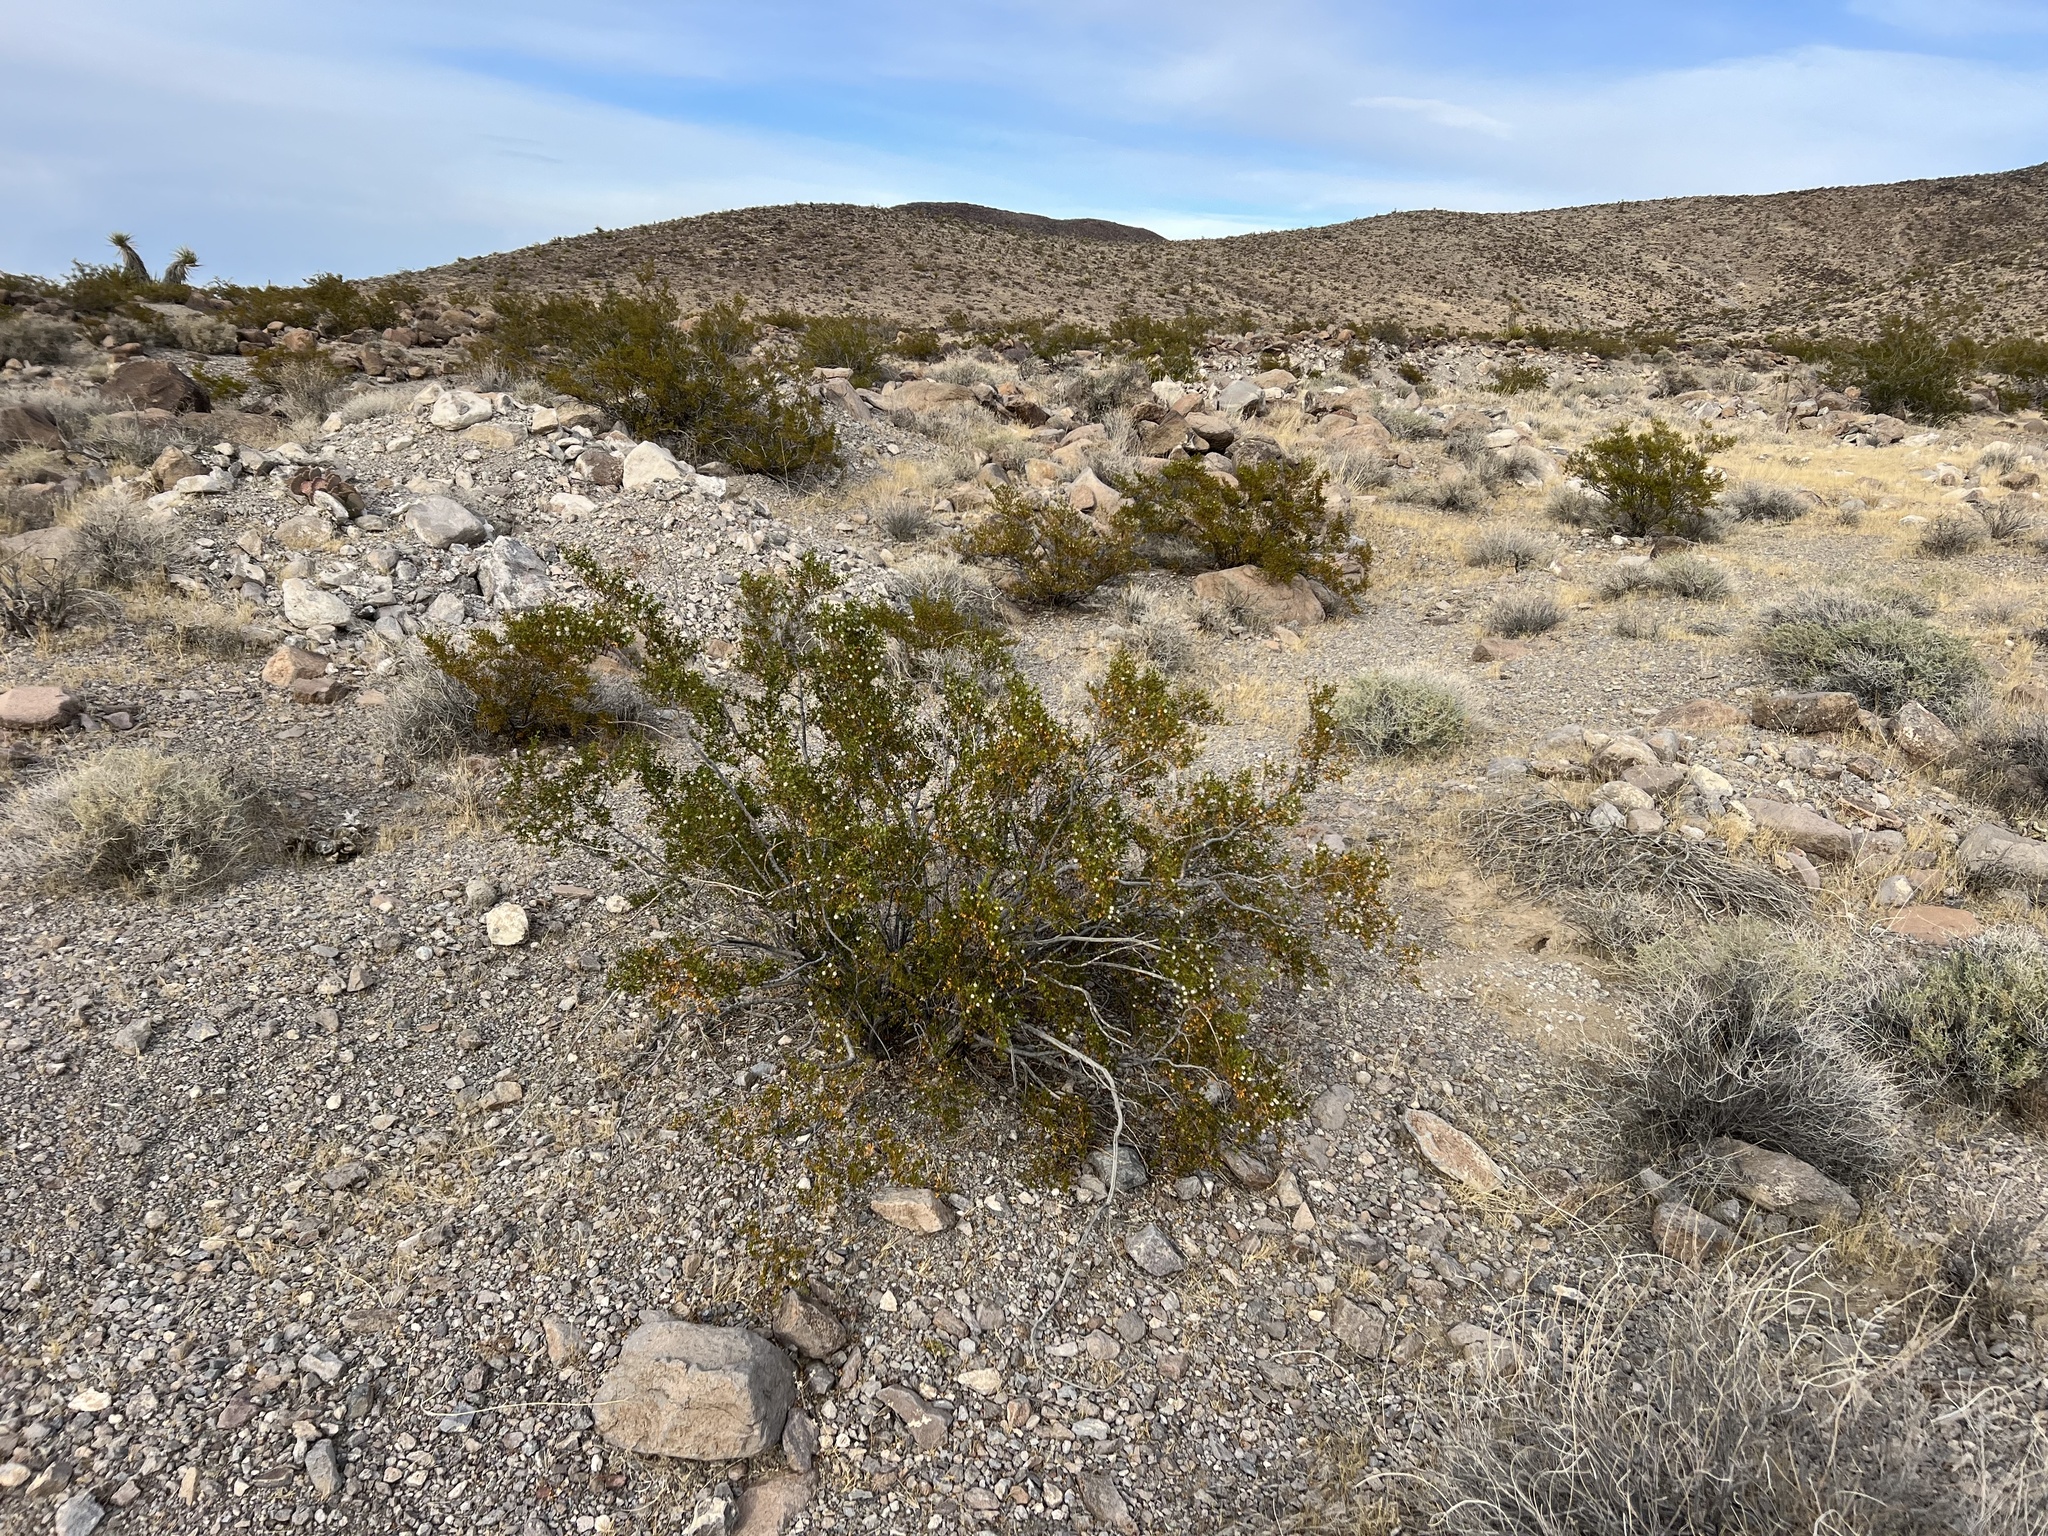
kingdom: Plantae
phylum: Tracheophyta
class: Magnoliopsida
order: Zygophyllales
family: Zygophyllaceae
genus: Larrea
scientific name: Larrea tridentata
